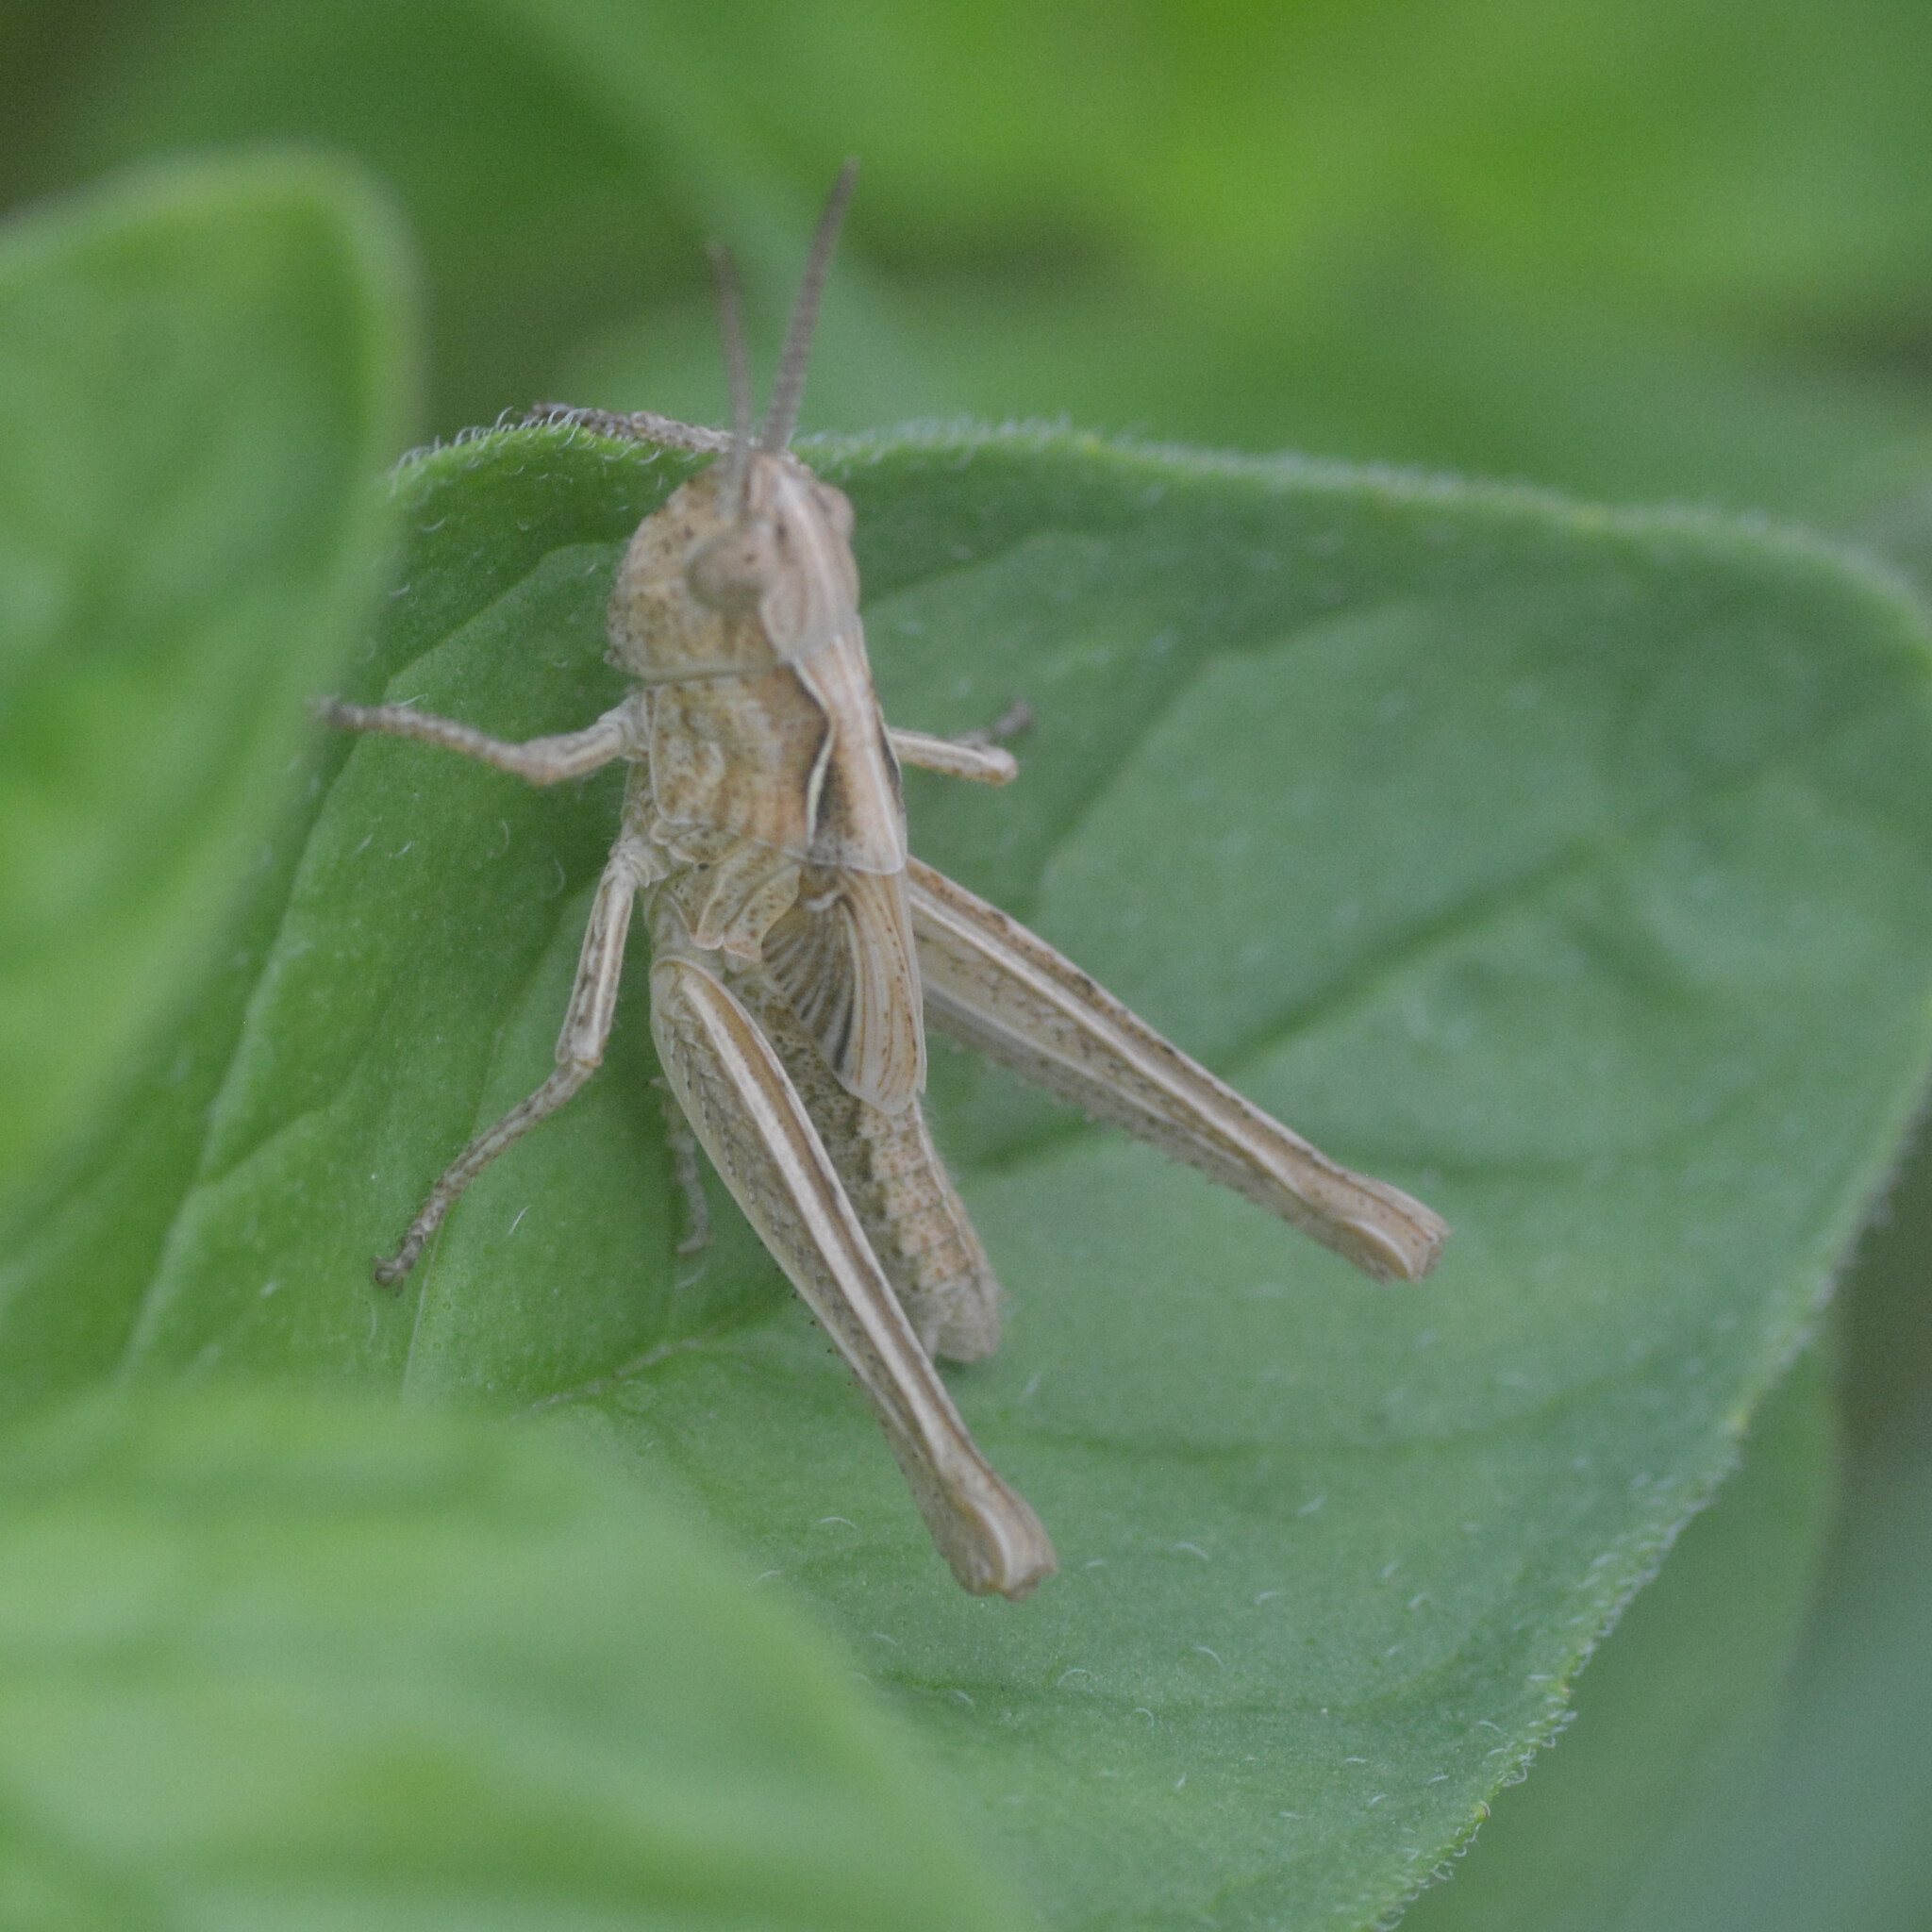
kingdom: Animalia
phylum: Arthropoda
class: Insecta
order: Orthoptera
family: Acrididae
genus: Chorthippus
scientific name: Chorthippus brunneus
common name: Field grasshopper
